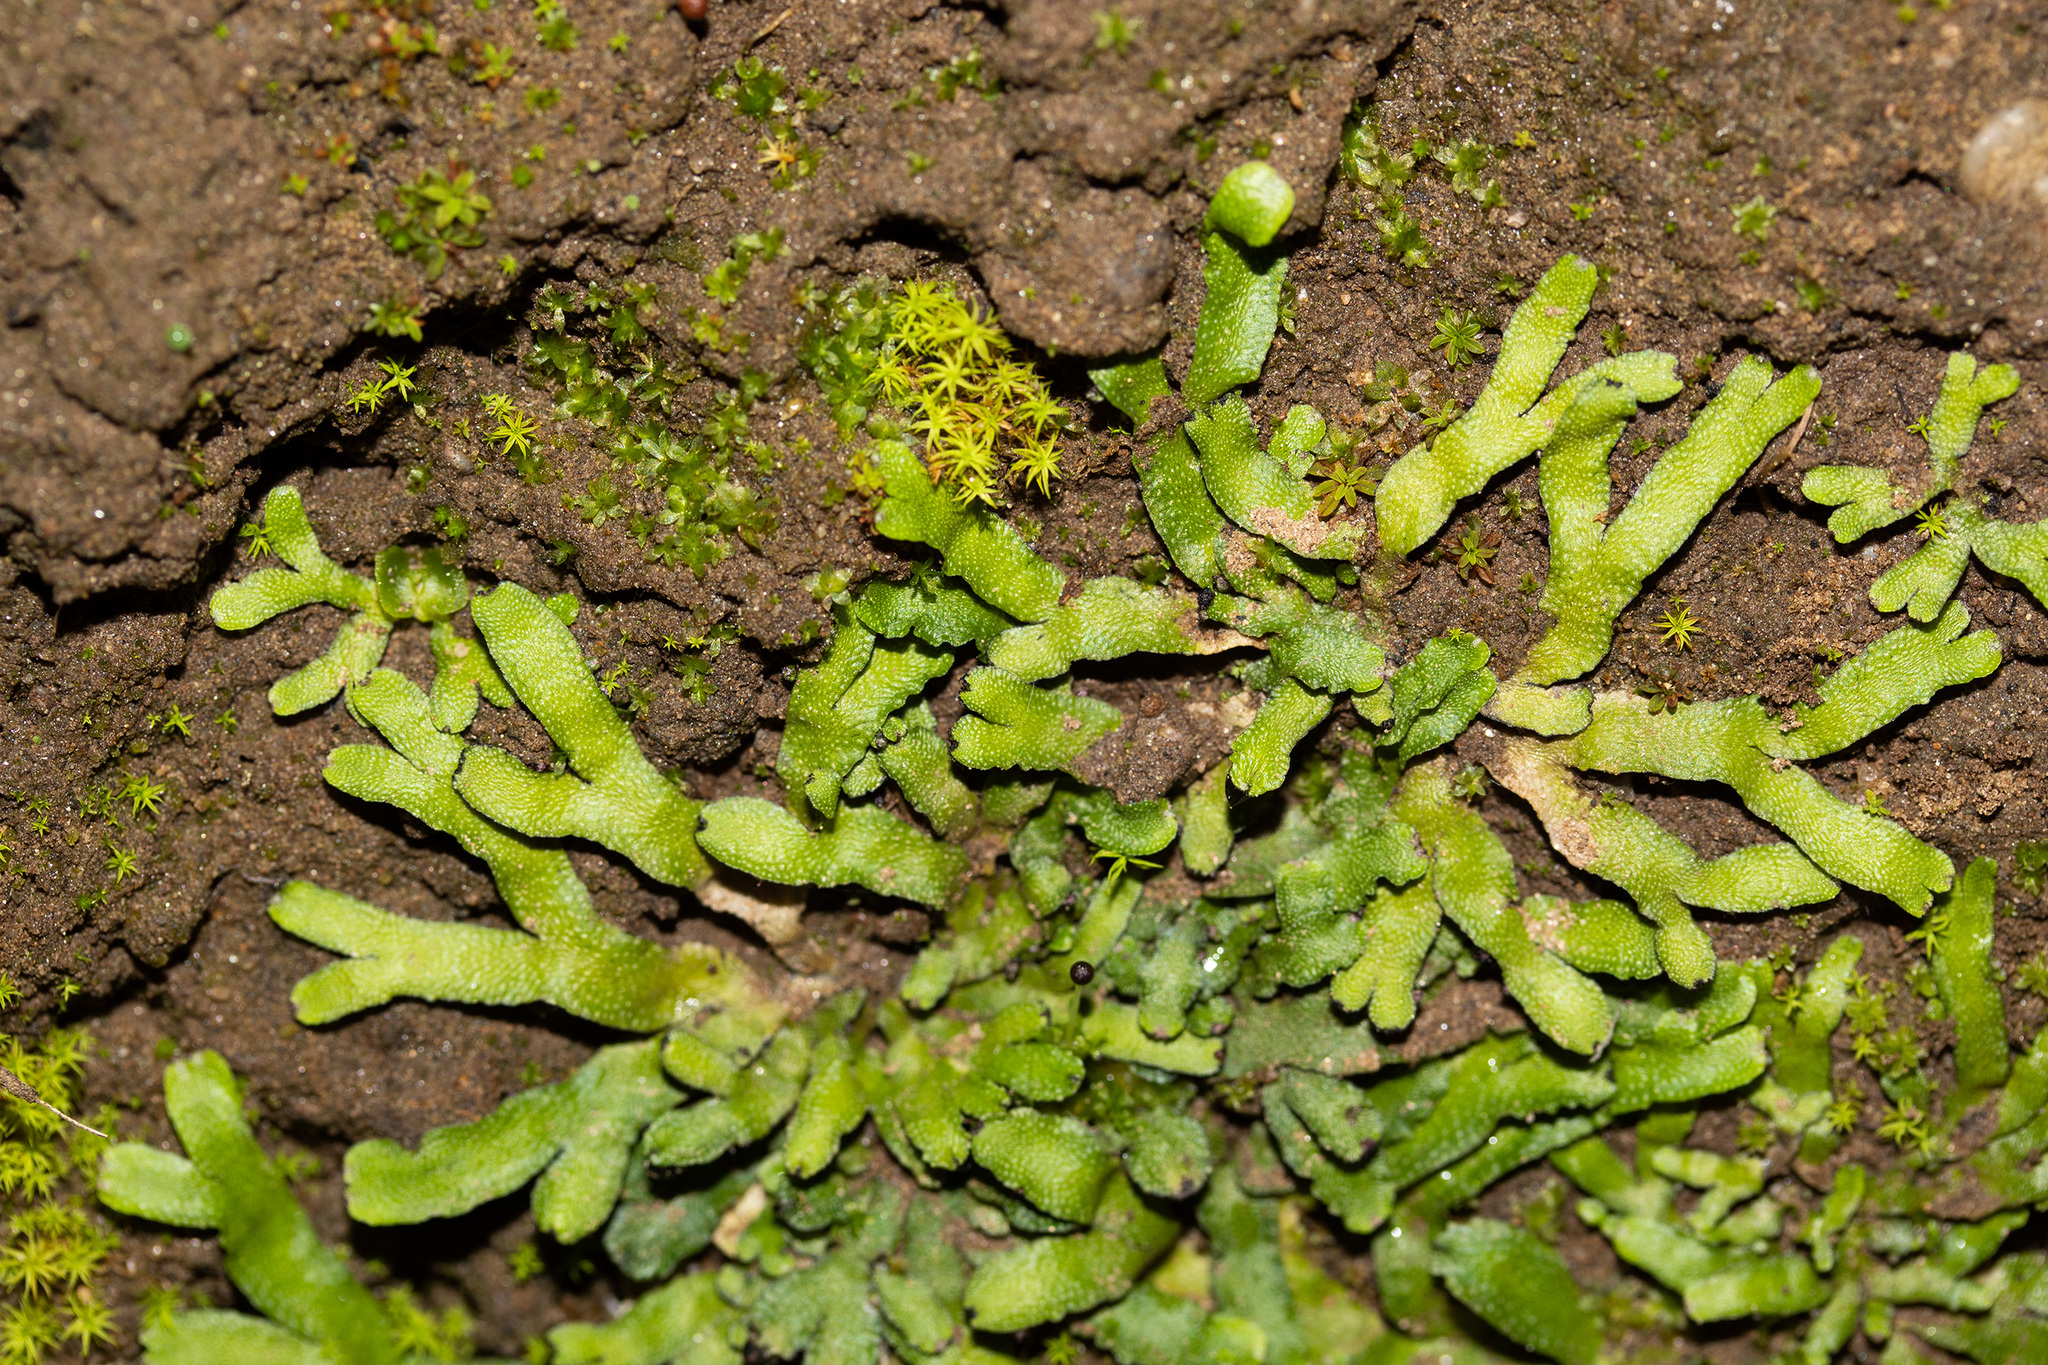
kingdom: Plantae
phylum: Marchantiophyta
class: Marchantiopsida
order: Marchantiales
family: Targioniaceae
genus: Targionia
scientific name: Targionia hypophylla
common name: Orobus-seed liverwort
